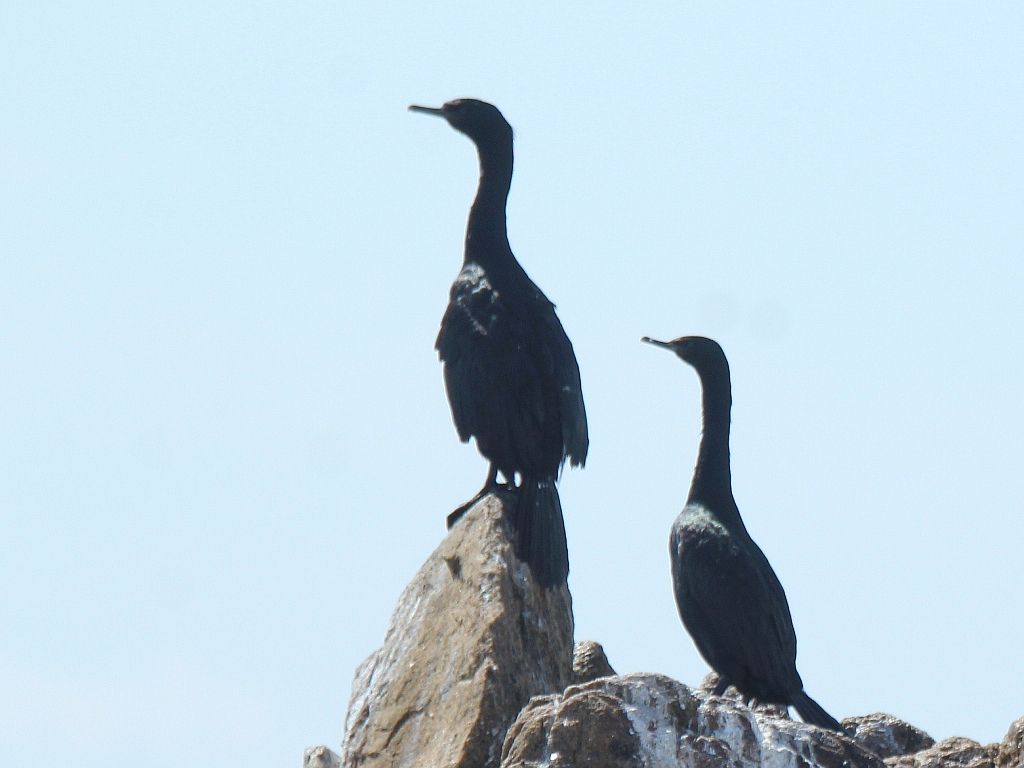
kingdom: Animalia
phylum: Chordata
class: Aves
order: Suliformes
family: Phalacrocoracidae
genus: Phalacrocorax
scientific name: Phalacrocorax pelagicus
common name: Pelagic cormorant
